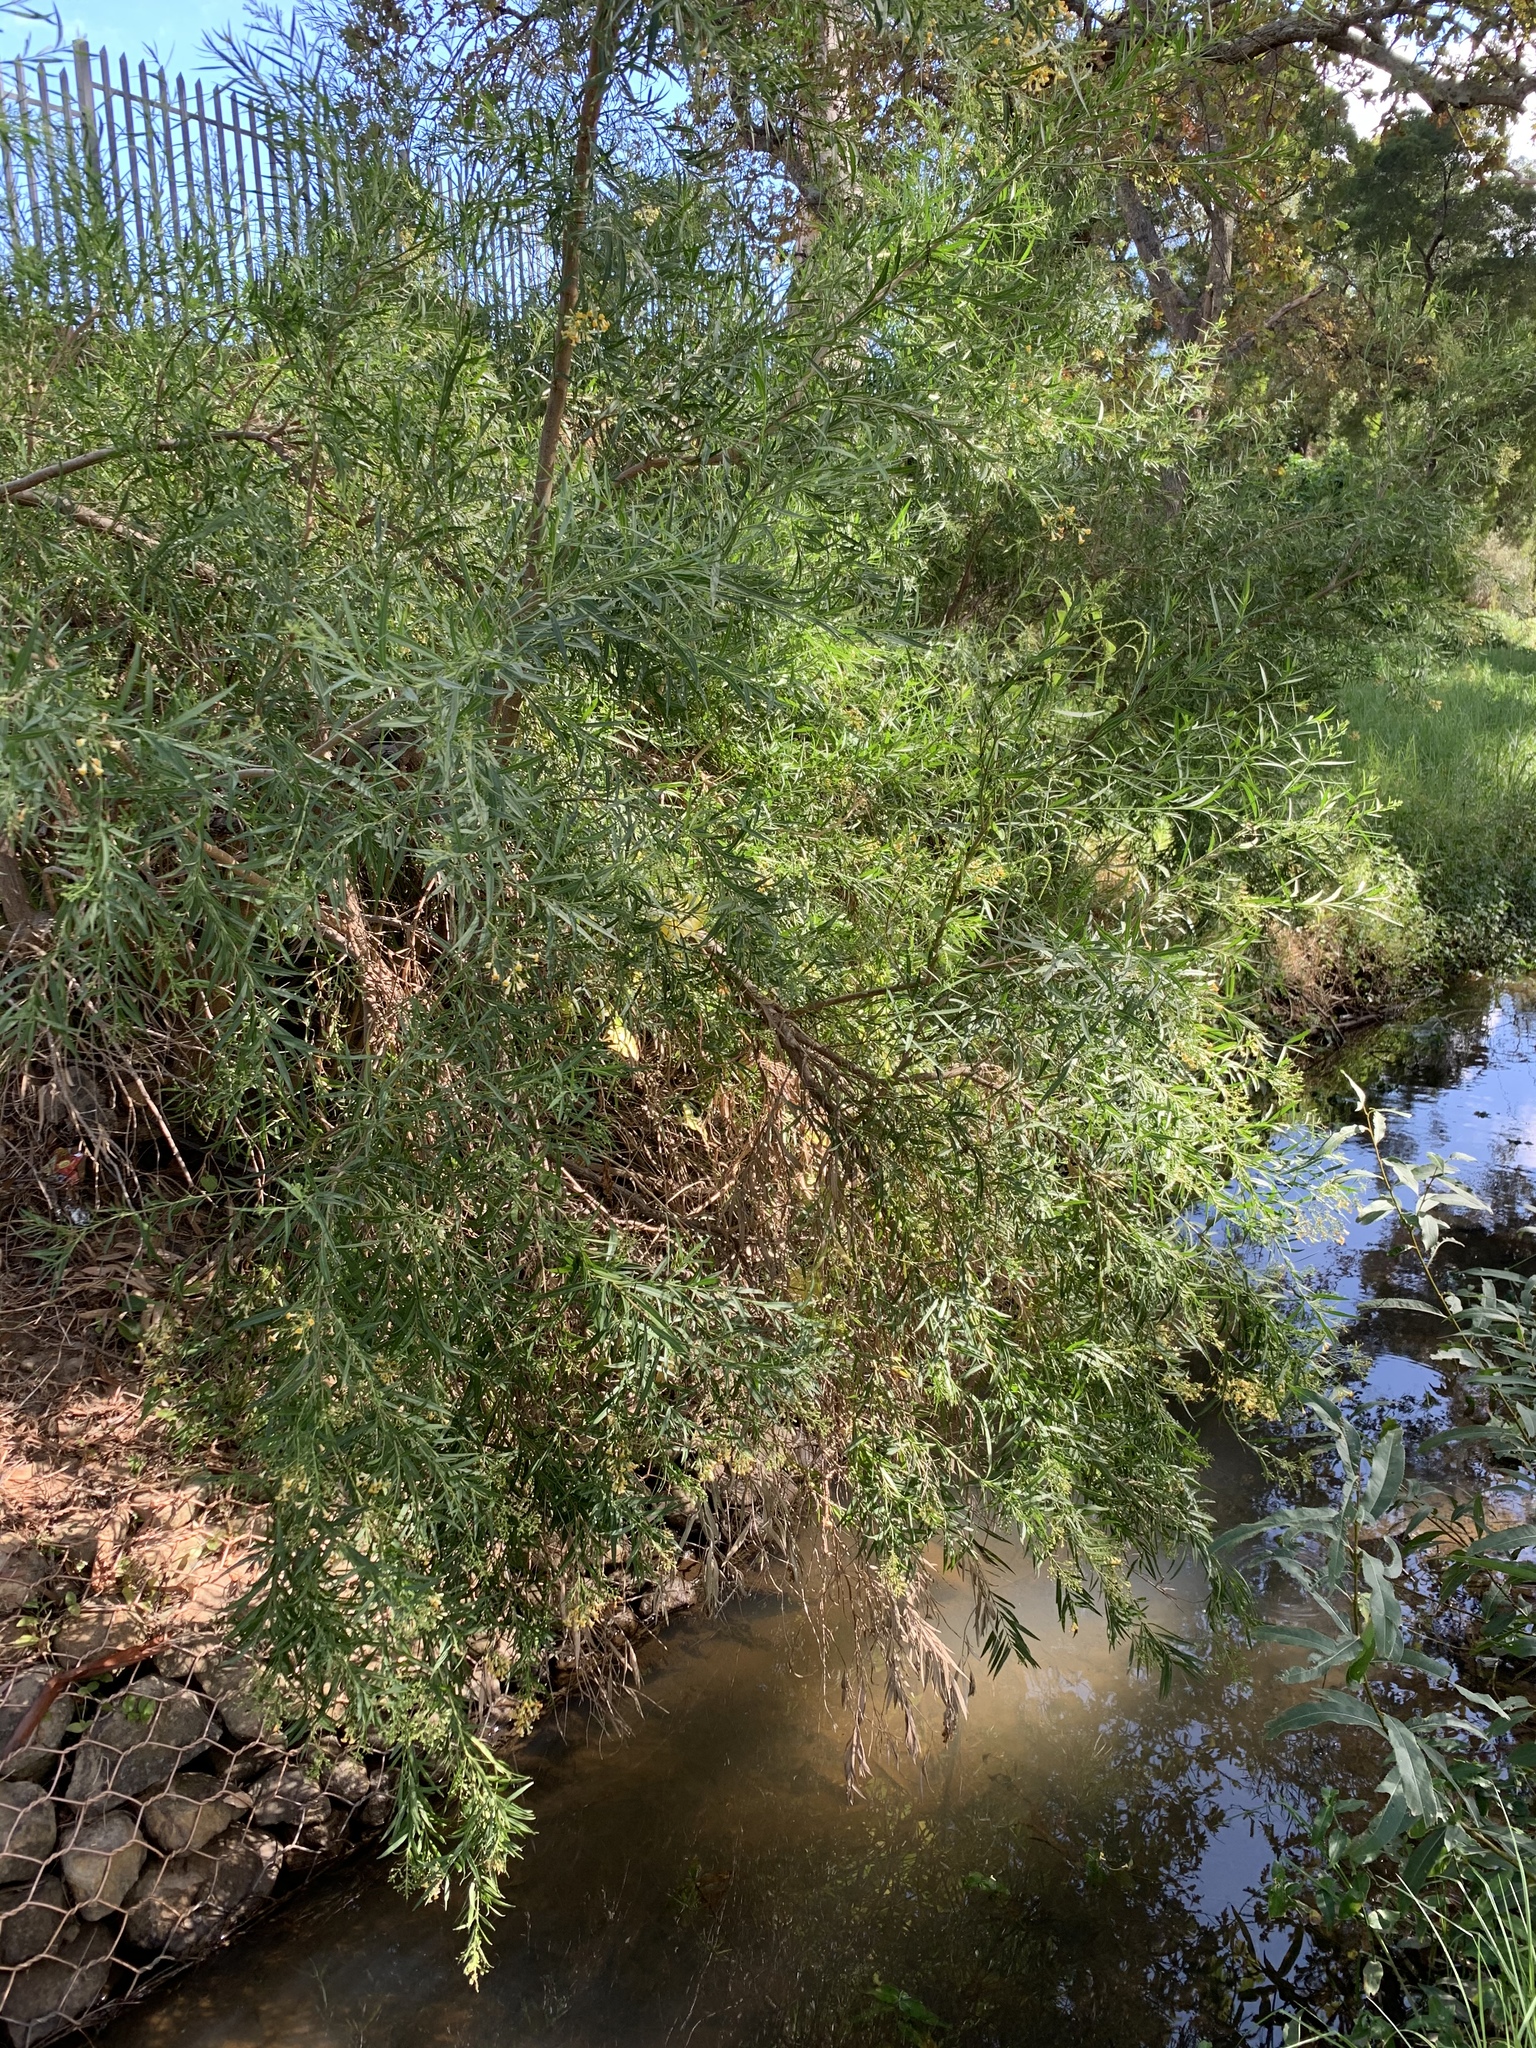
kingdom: Plantae
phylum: Tracheophyta
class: Magnoliopsida
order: Lamiales
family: Scrophulariaceae
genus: Freylinia
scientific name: Freylinia lanceolata
